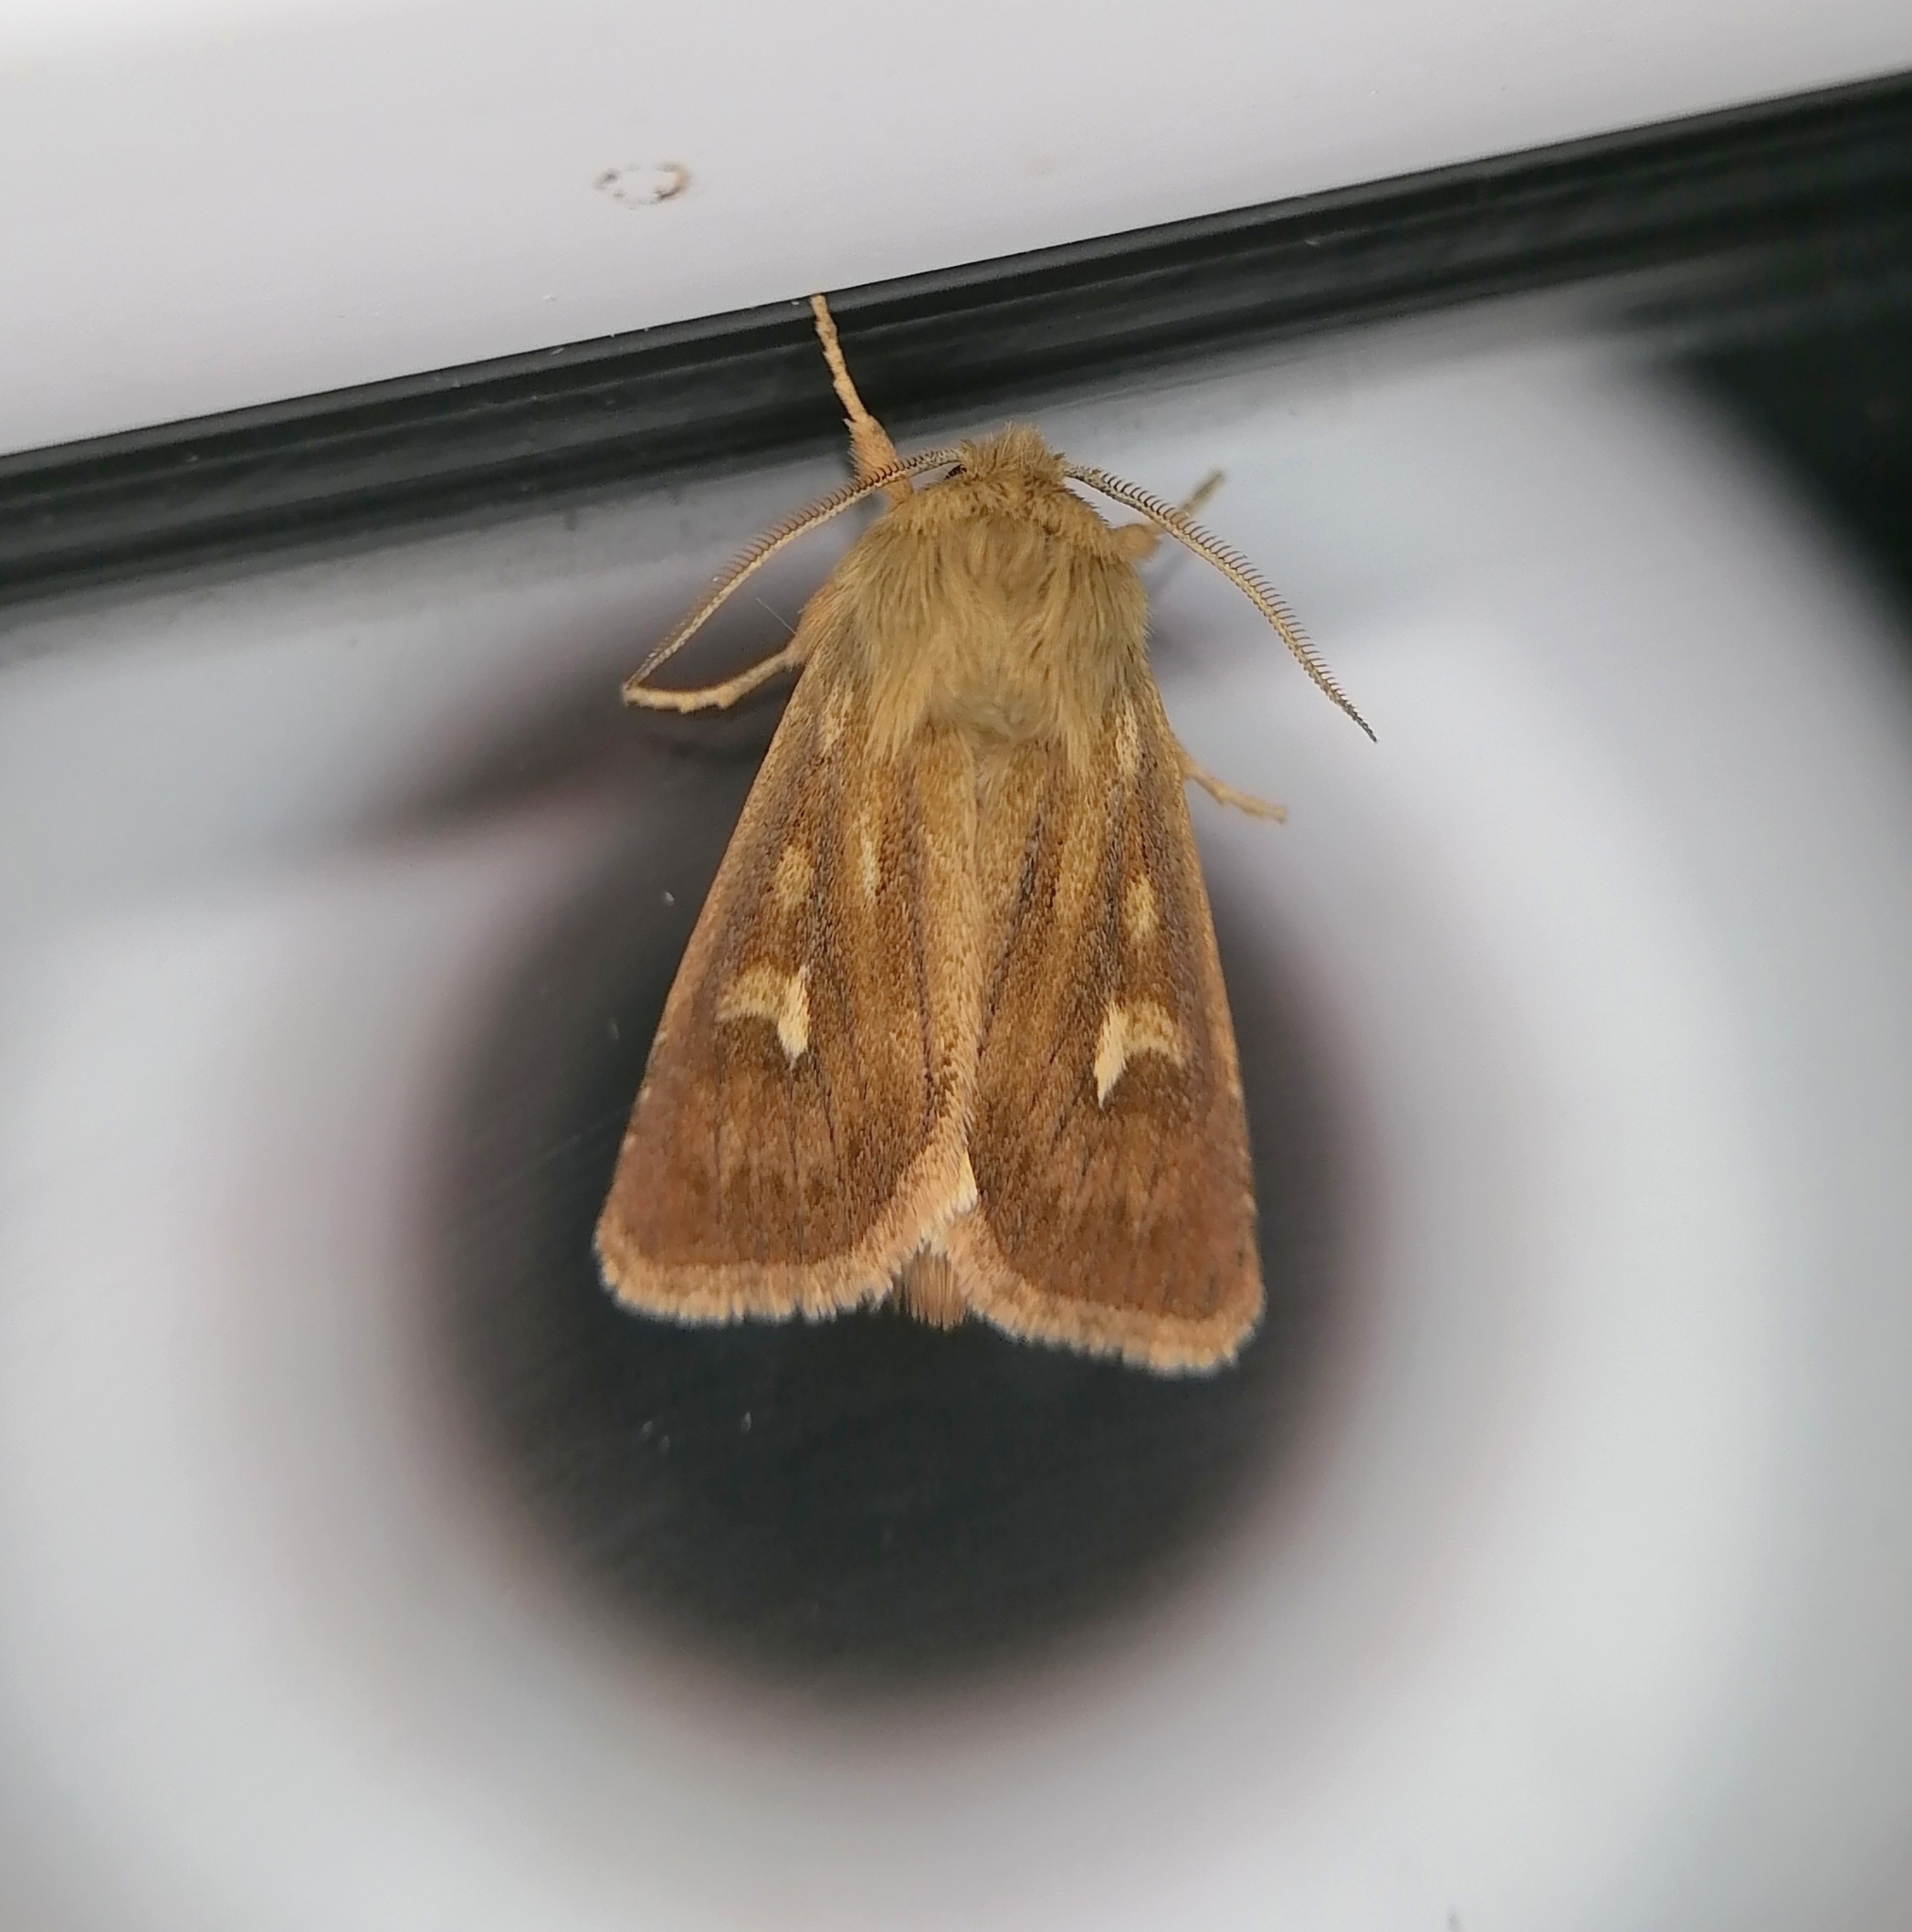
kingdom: Animalia
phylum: Arthropoda
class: Insecta
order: Lepidoptera
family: Noctuidae
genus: Cerapteryx
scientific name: Cerapteryx graminis
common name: Antler moth
